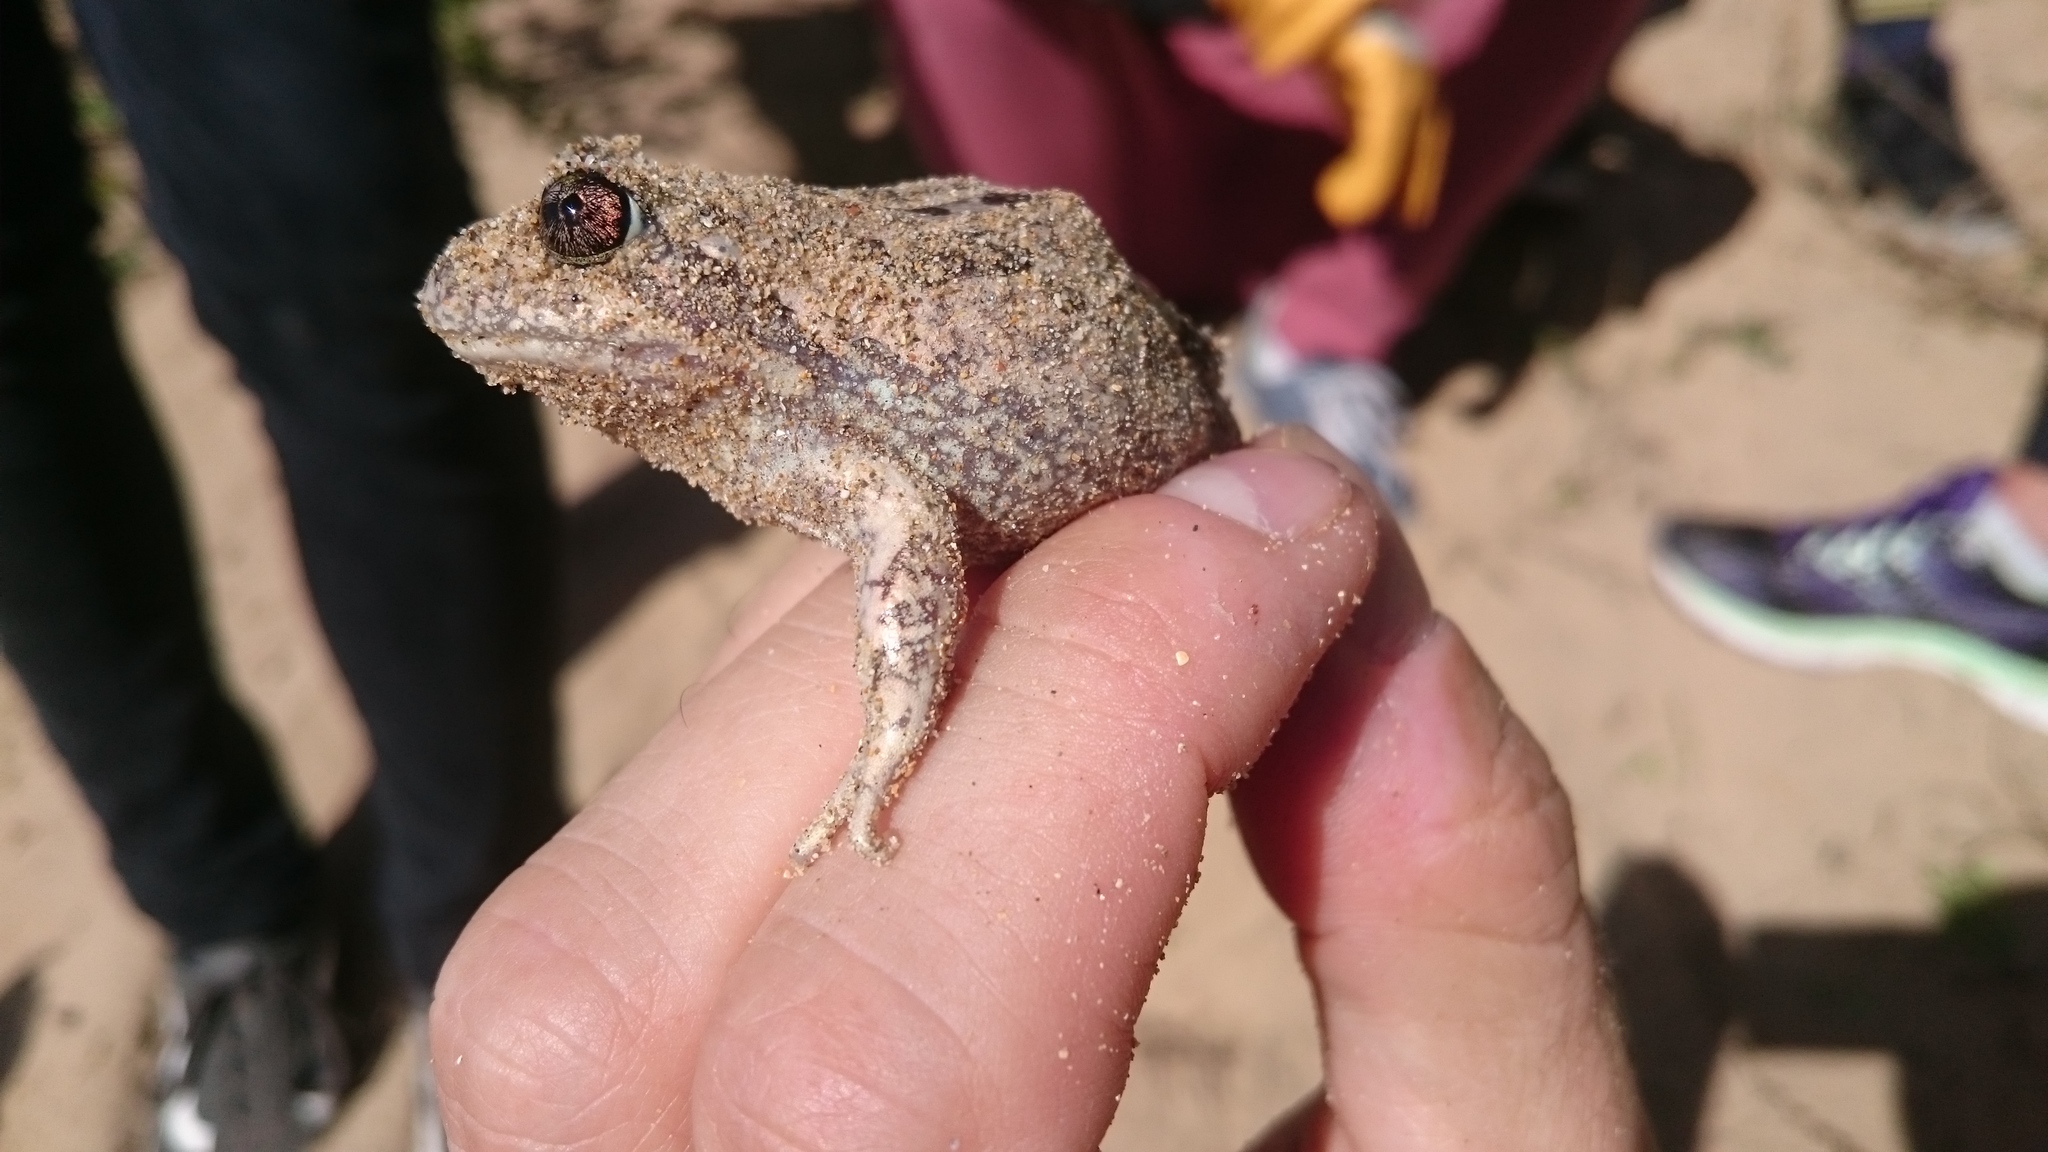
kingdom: Animalia
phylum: Chordata
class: Amphibia
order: Anura
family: Limnodynastidae
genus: Limnodynastes
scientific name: Limnodynastes dumerilii
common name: Banjo frog
